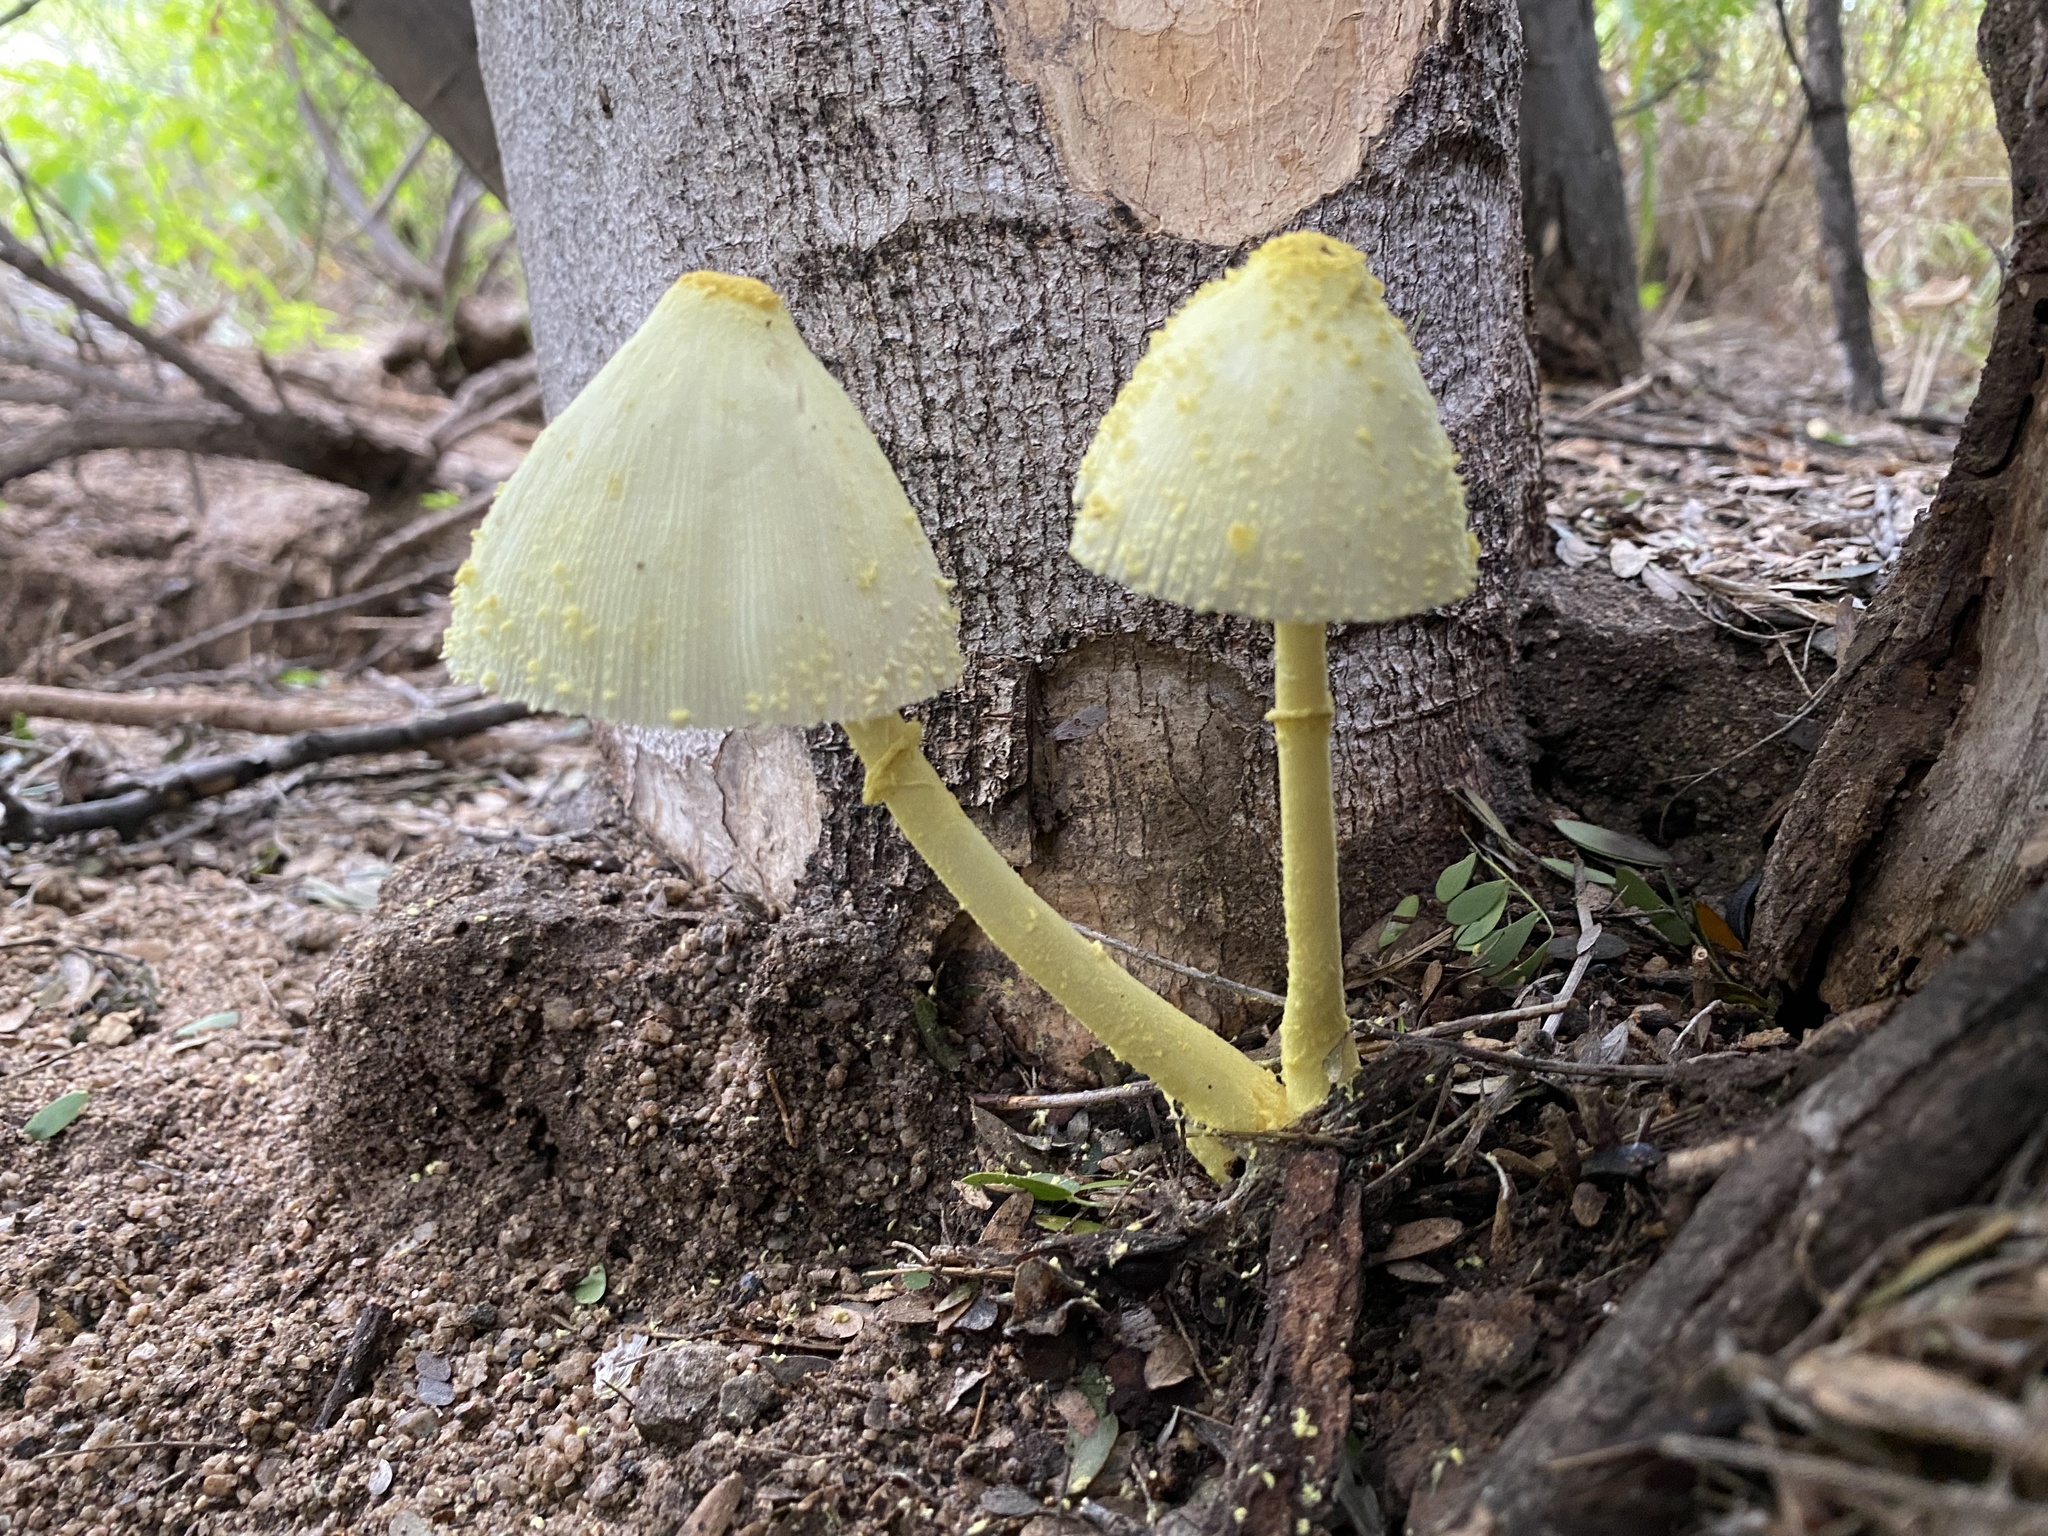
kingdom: Fungi
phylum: Basidiomycota
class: Agaricomycetes
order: Agaricales
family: Agaricaceae
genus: Leucocoprinus
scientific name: Leucocoprinus birnbaumii
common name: Plantpot dapperling
